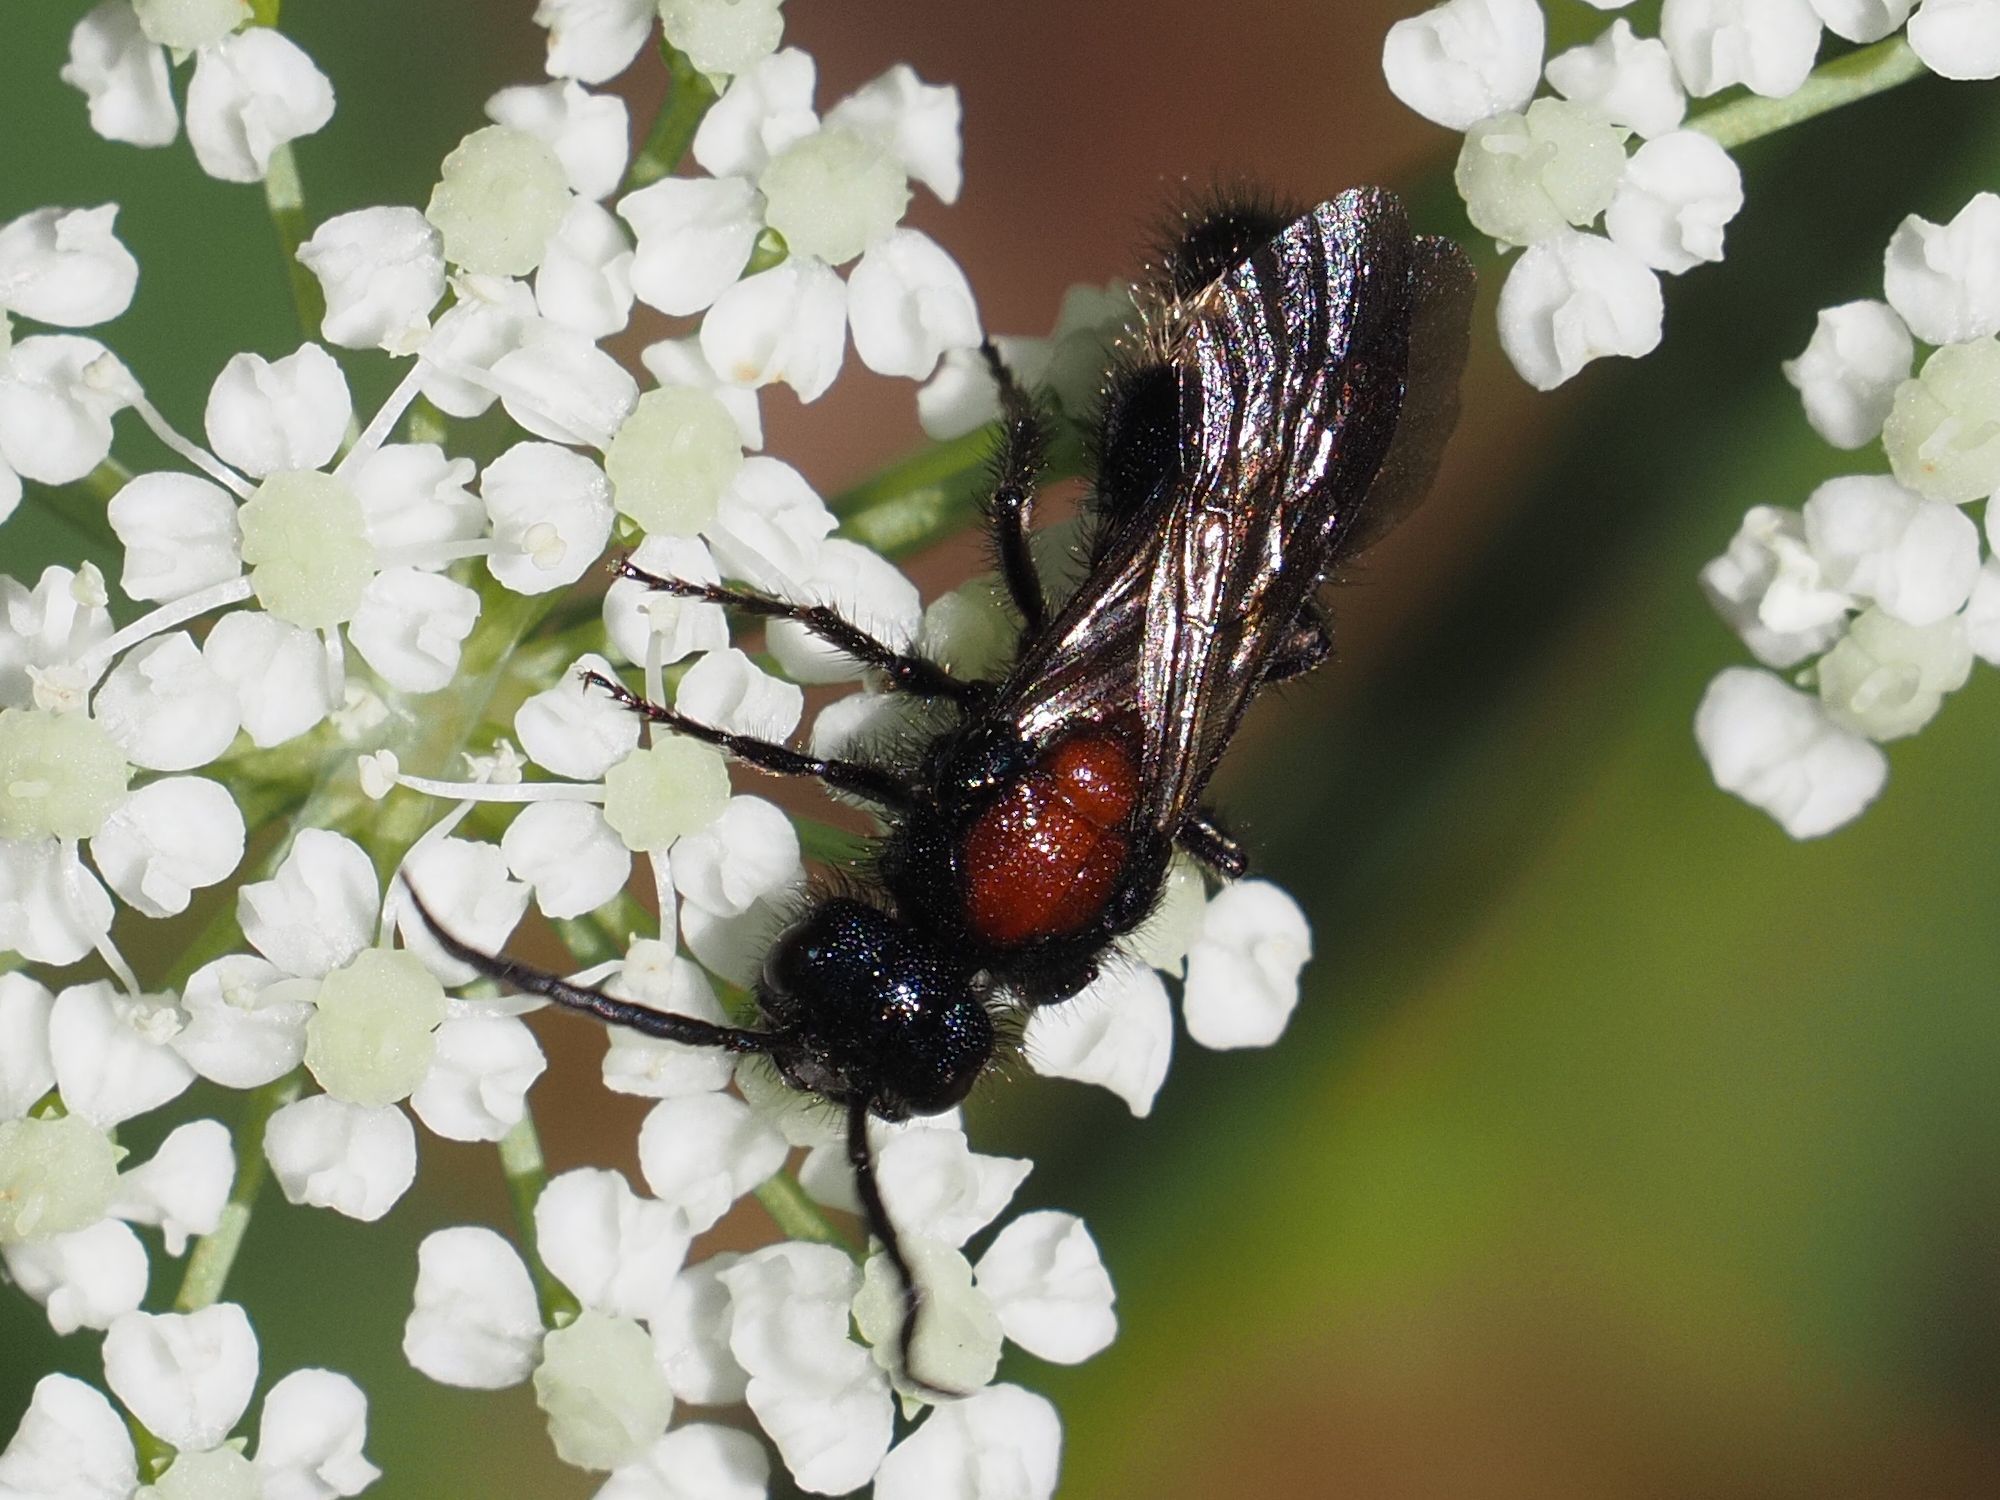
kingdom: Animalia
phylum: Arthropoda
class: Insecta
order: Hymenoptera
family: Mutillidae
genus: Mutilla
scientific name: Mutilla europaea
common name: Large velvet ant
